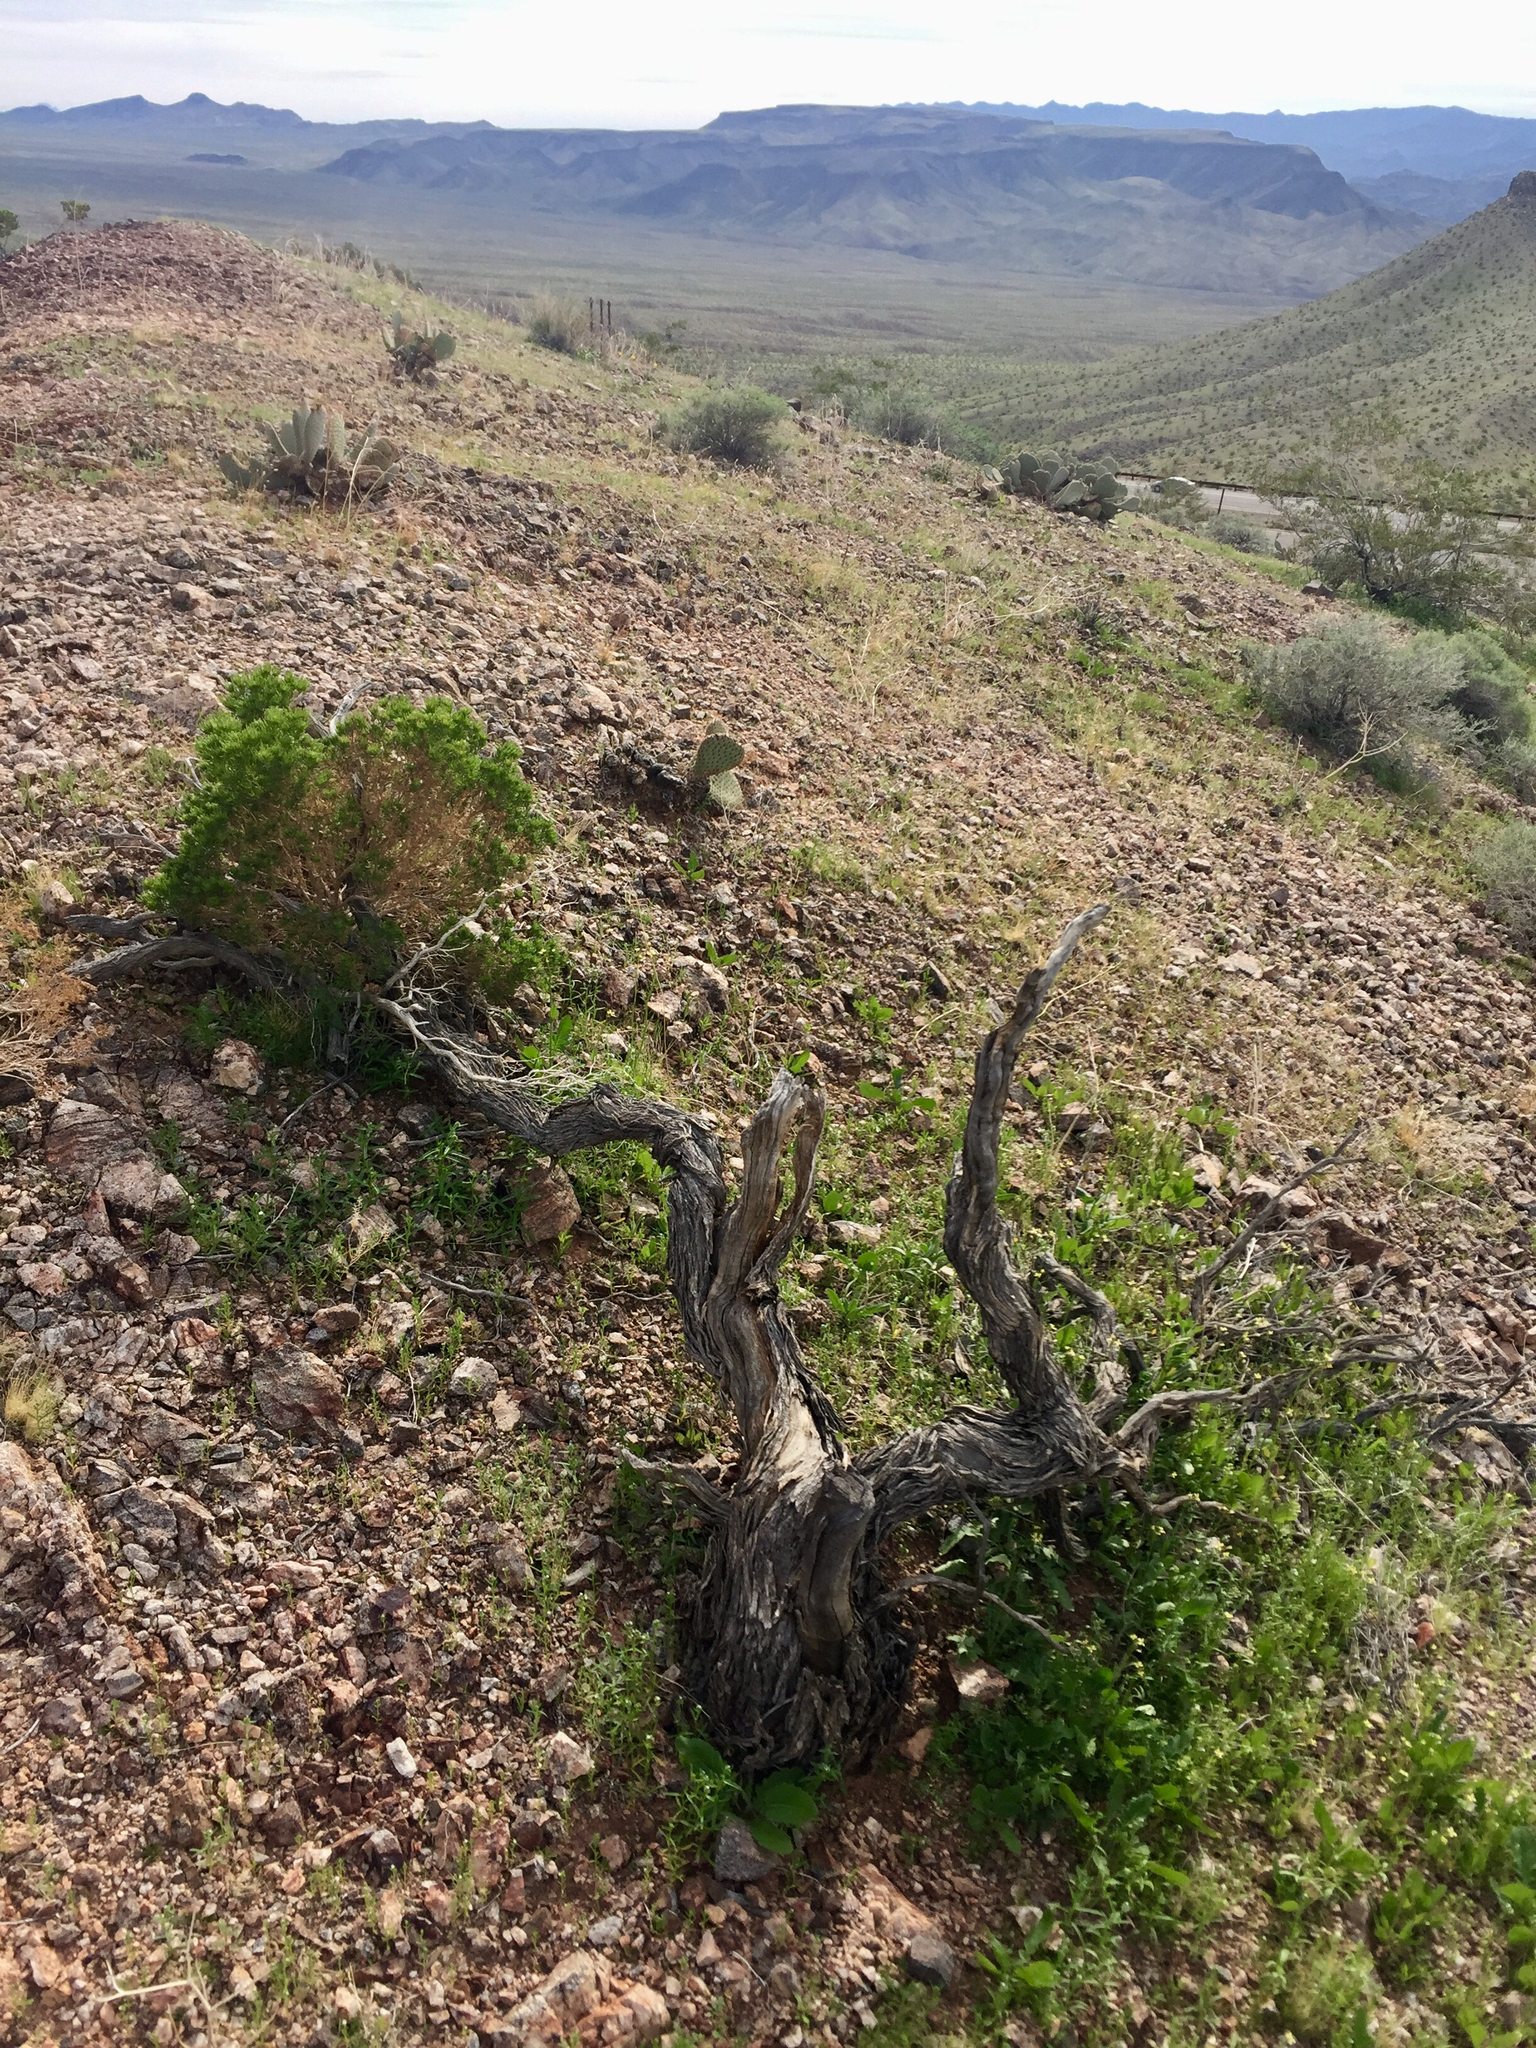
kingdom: Plantae
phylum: Tracheophyta
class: Magnoliopsida
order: Asterales
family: Asteraceae
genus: Peucephyllum
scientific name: Peucephyllum schottii
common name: Pygmy-cedar
